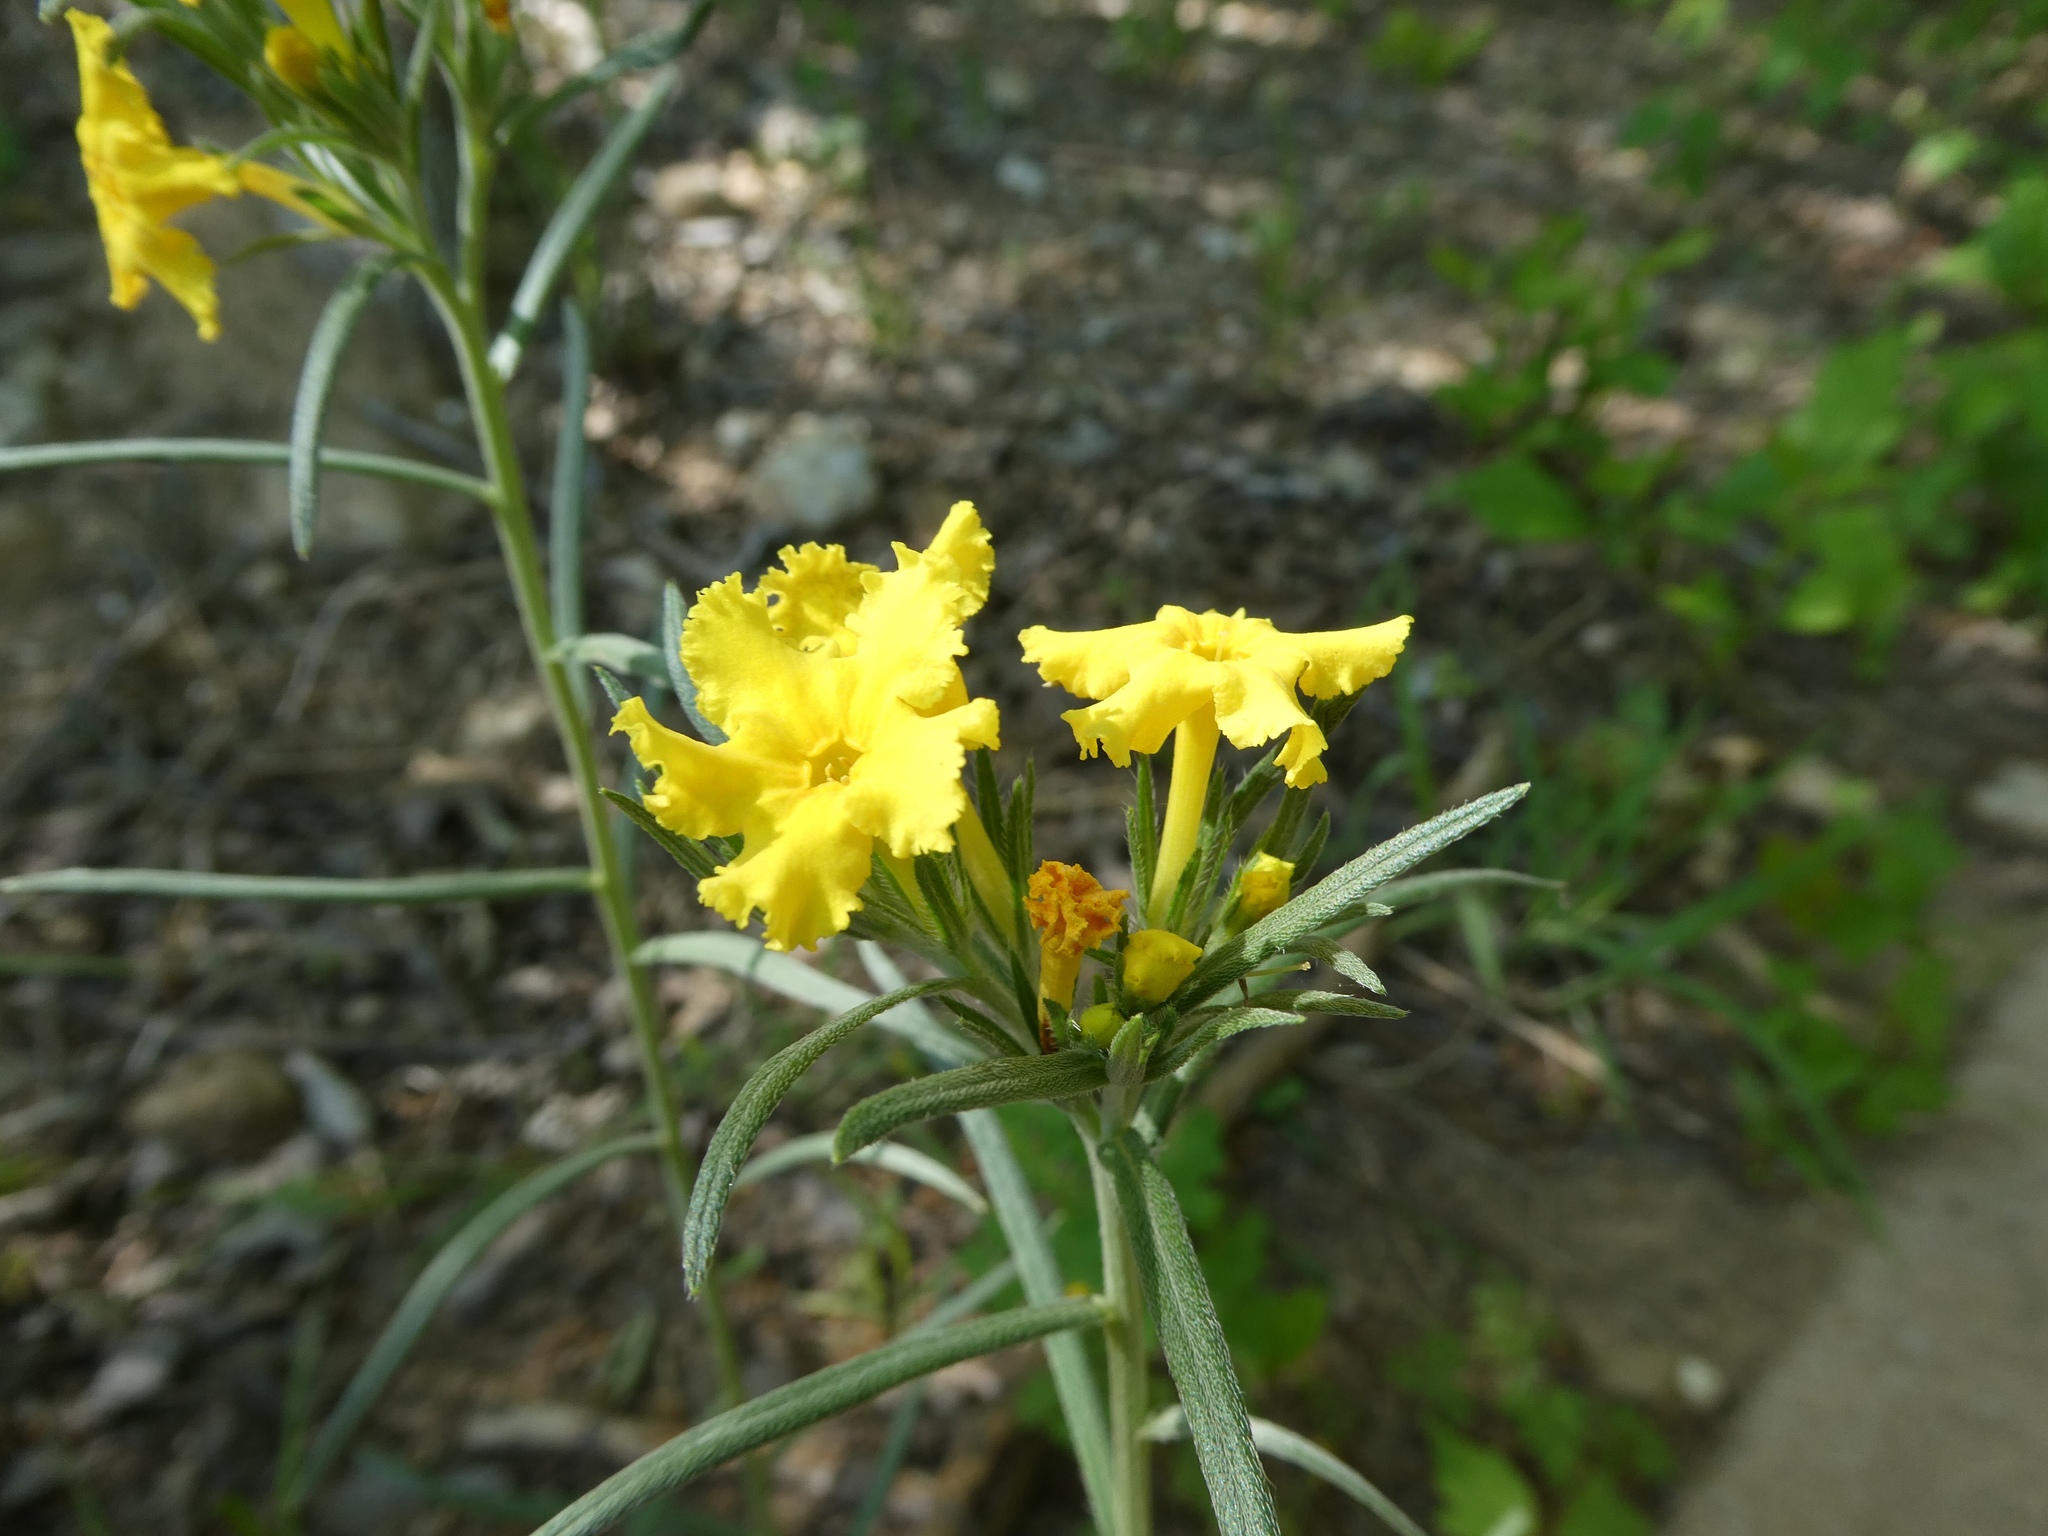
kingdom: Plantae
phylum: Tracheophyta
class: Magnoliopsida
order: Boraginales
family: Boraginaceae
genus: Lithospermum
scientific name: Lithospermum incisum
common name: Fringed gromwell
